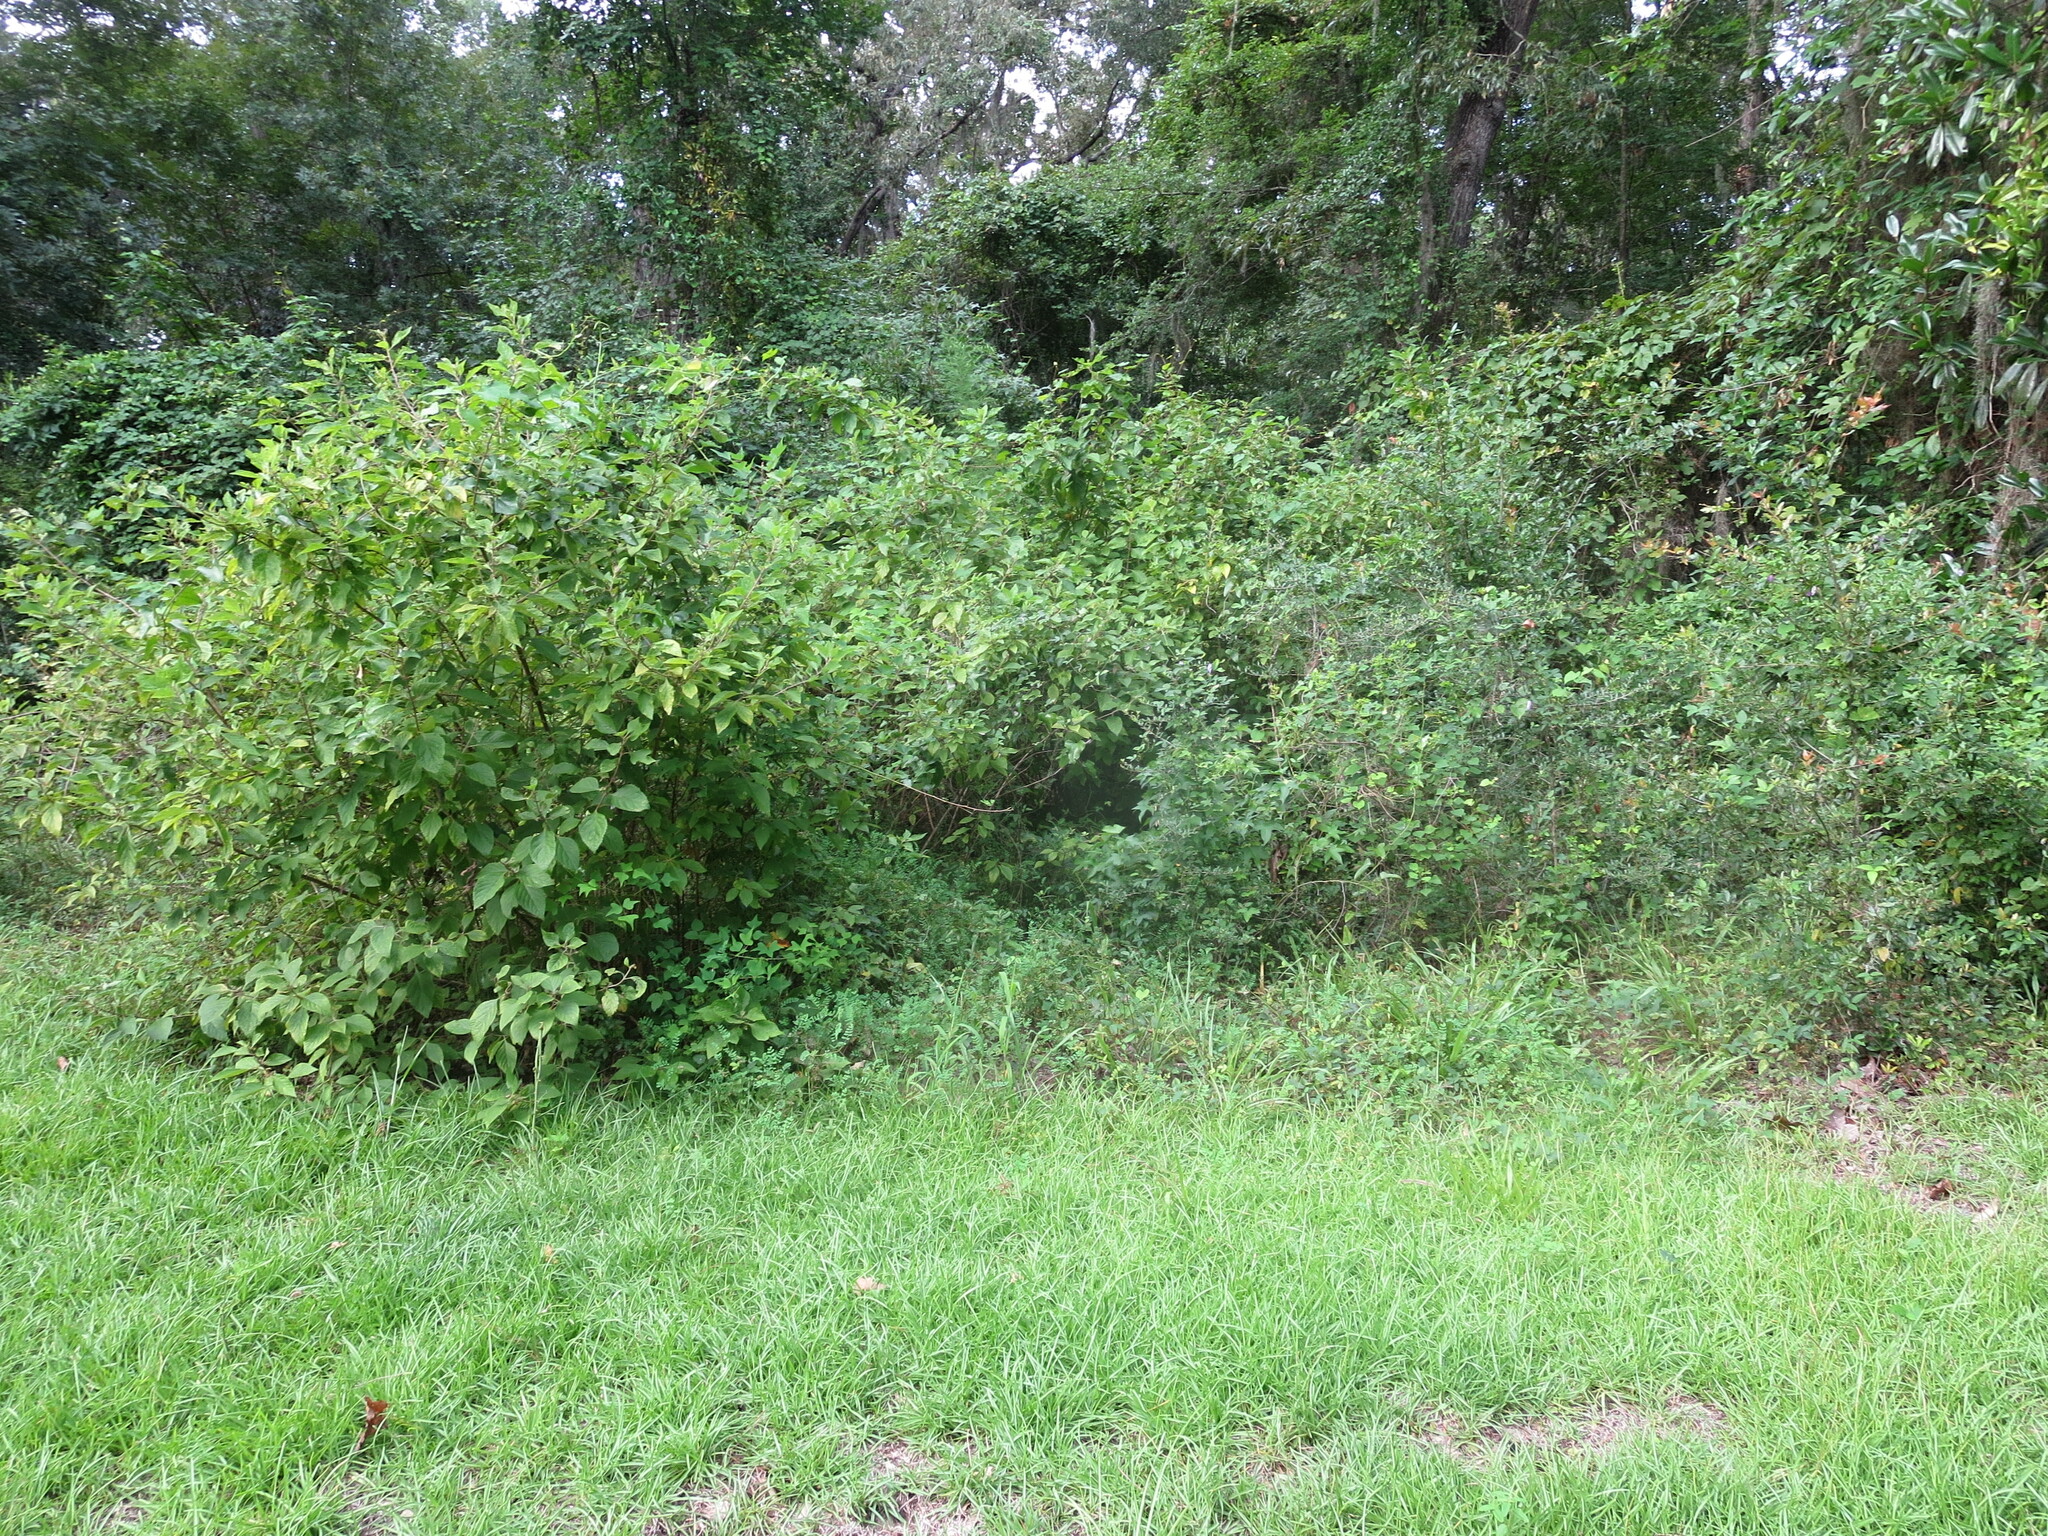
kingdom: Plantae
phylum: Tracheophyta
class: Magnoliopsida
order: Lamiales
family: Lamiaceae
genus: Callicarpa
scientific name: Callicarpa americana
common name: American beautyberry
